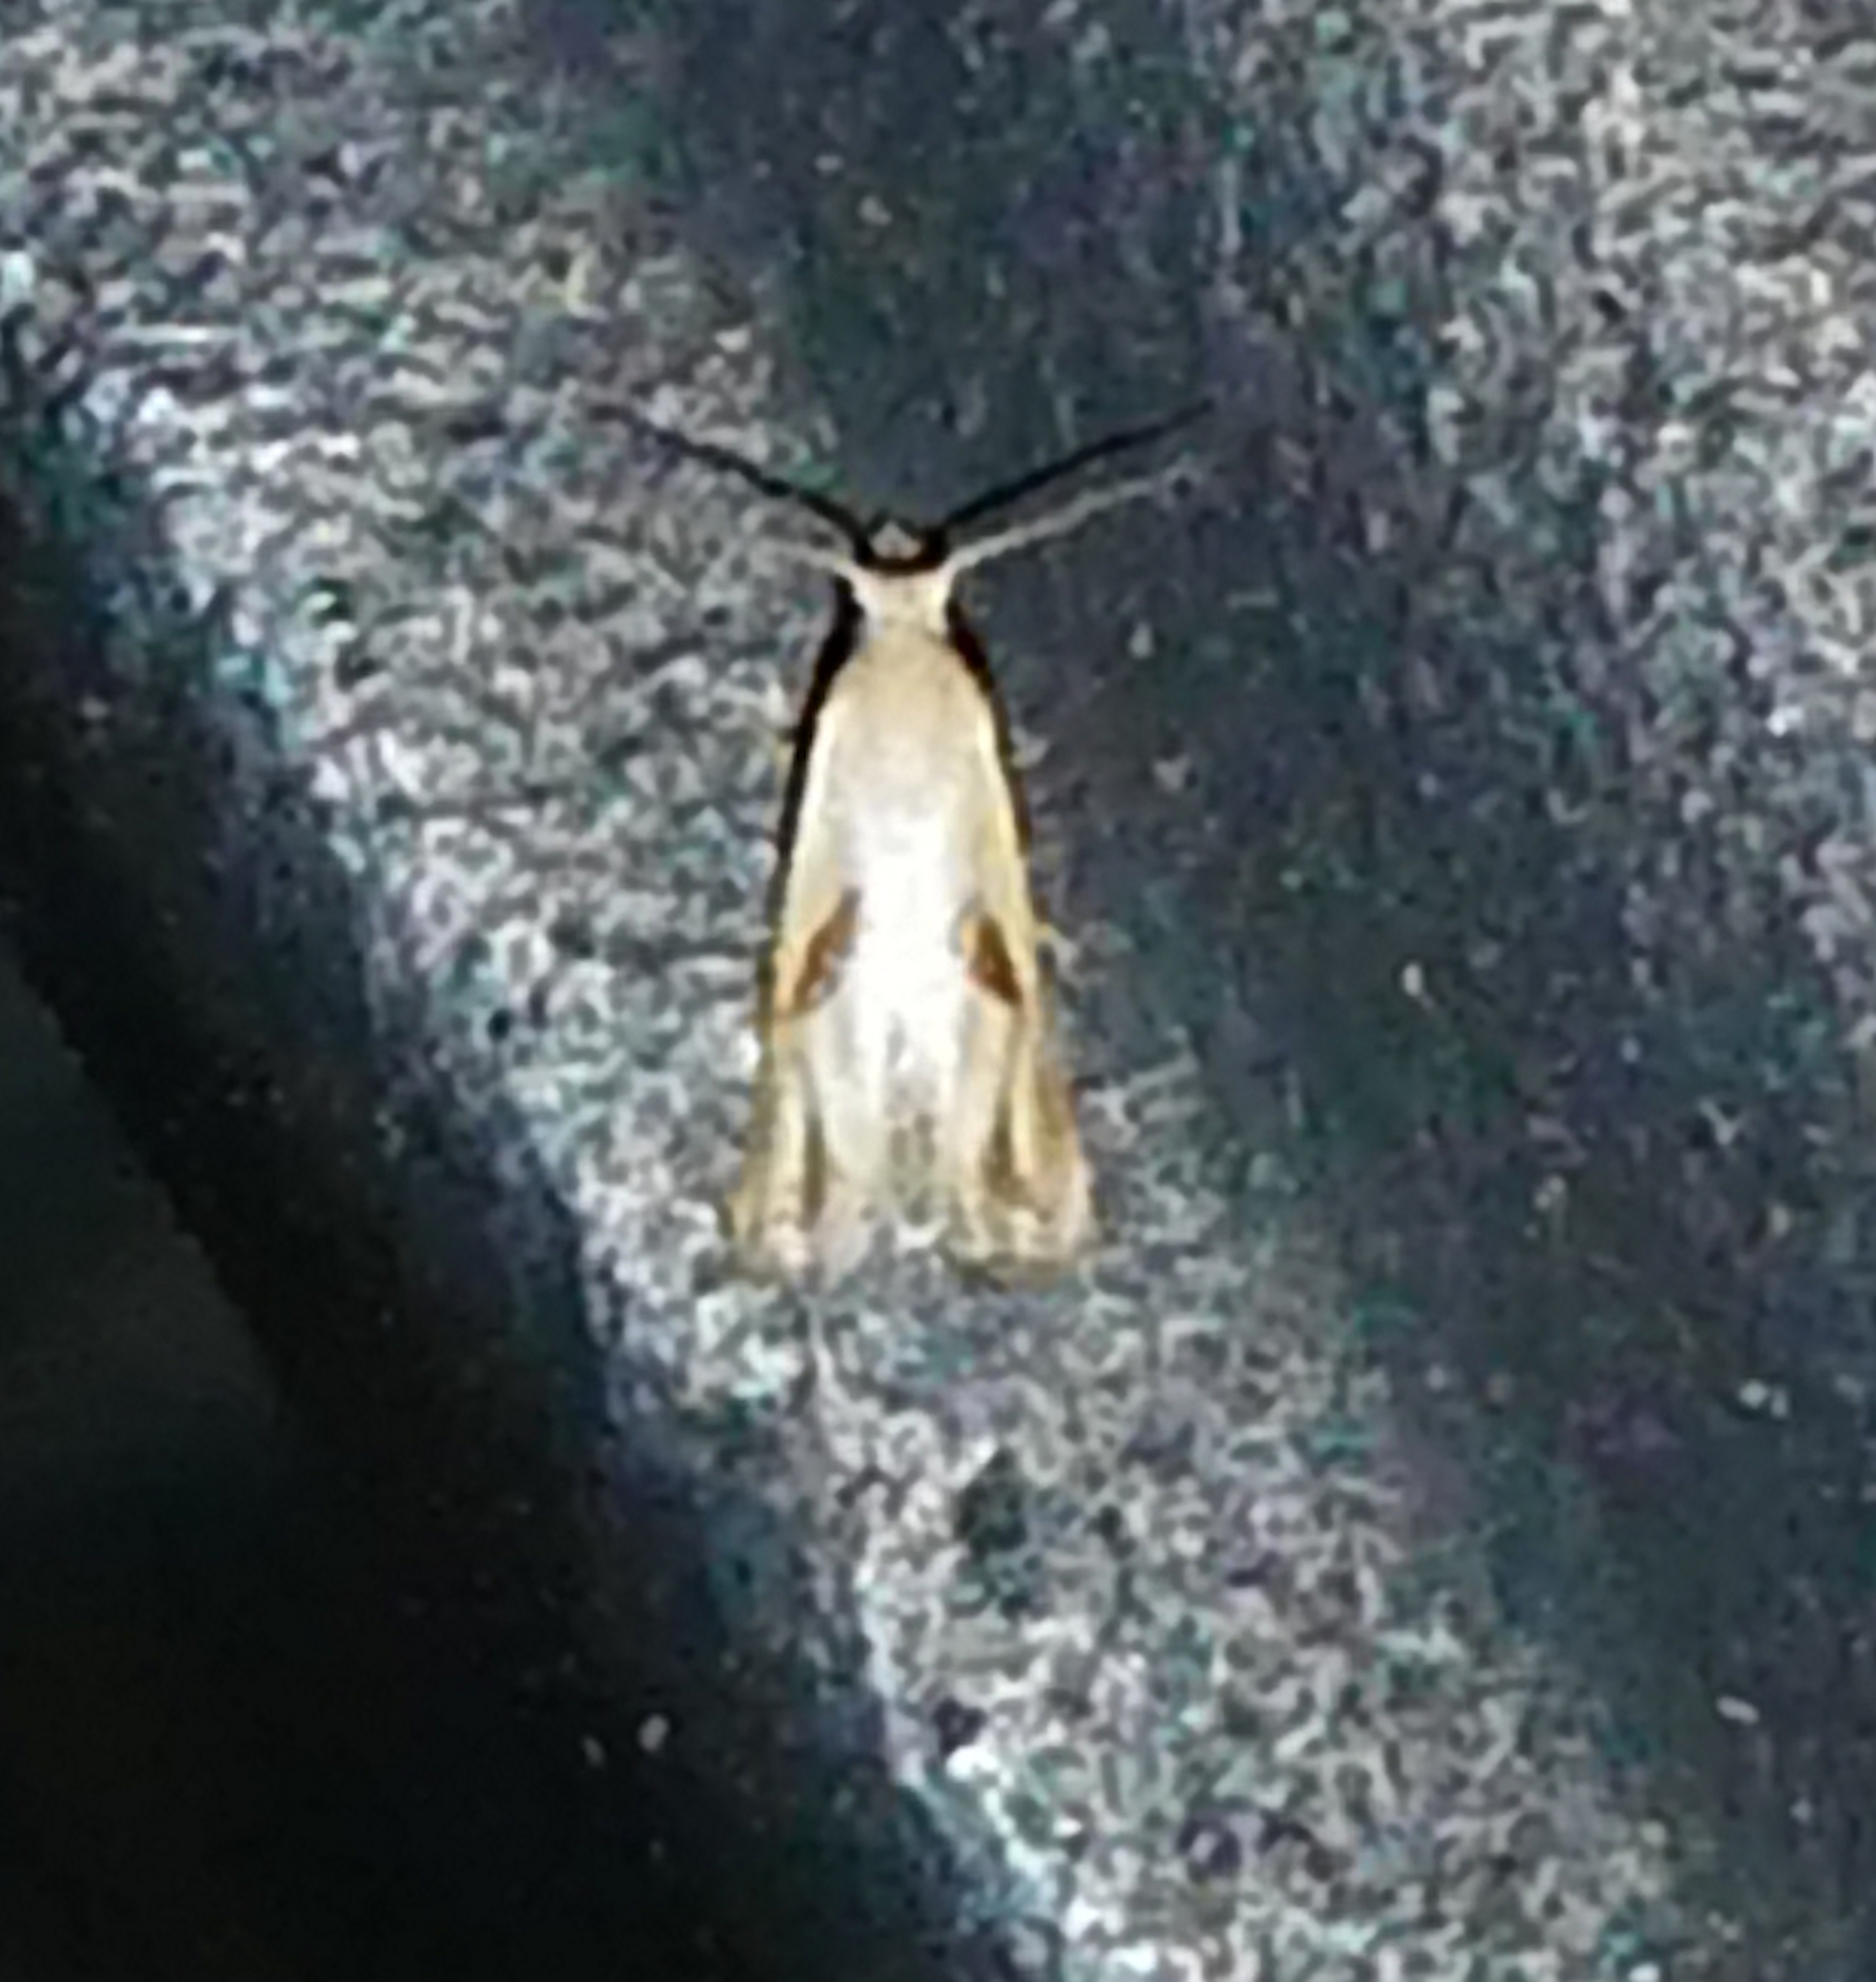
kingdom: Animalia
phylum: Arthropoda
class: Insecta
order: Lepidoptera
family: Tortricidae
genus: Eugnosta
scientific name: Eugnosta bimaculana
